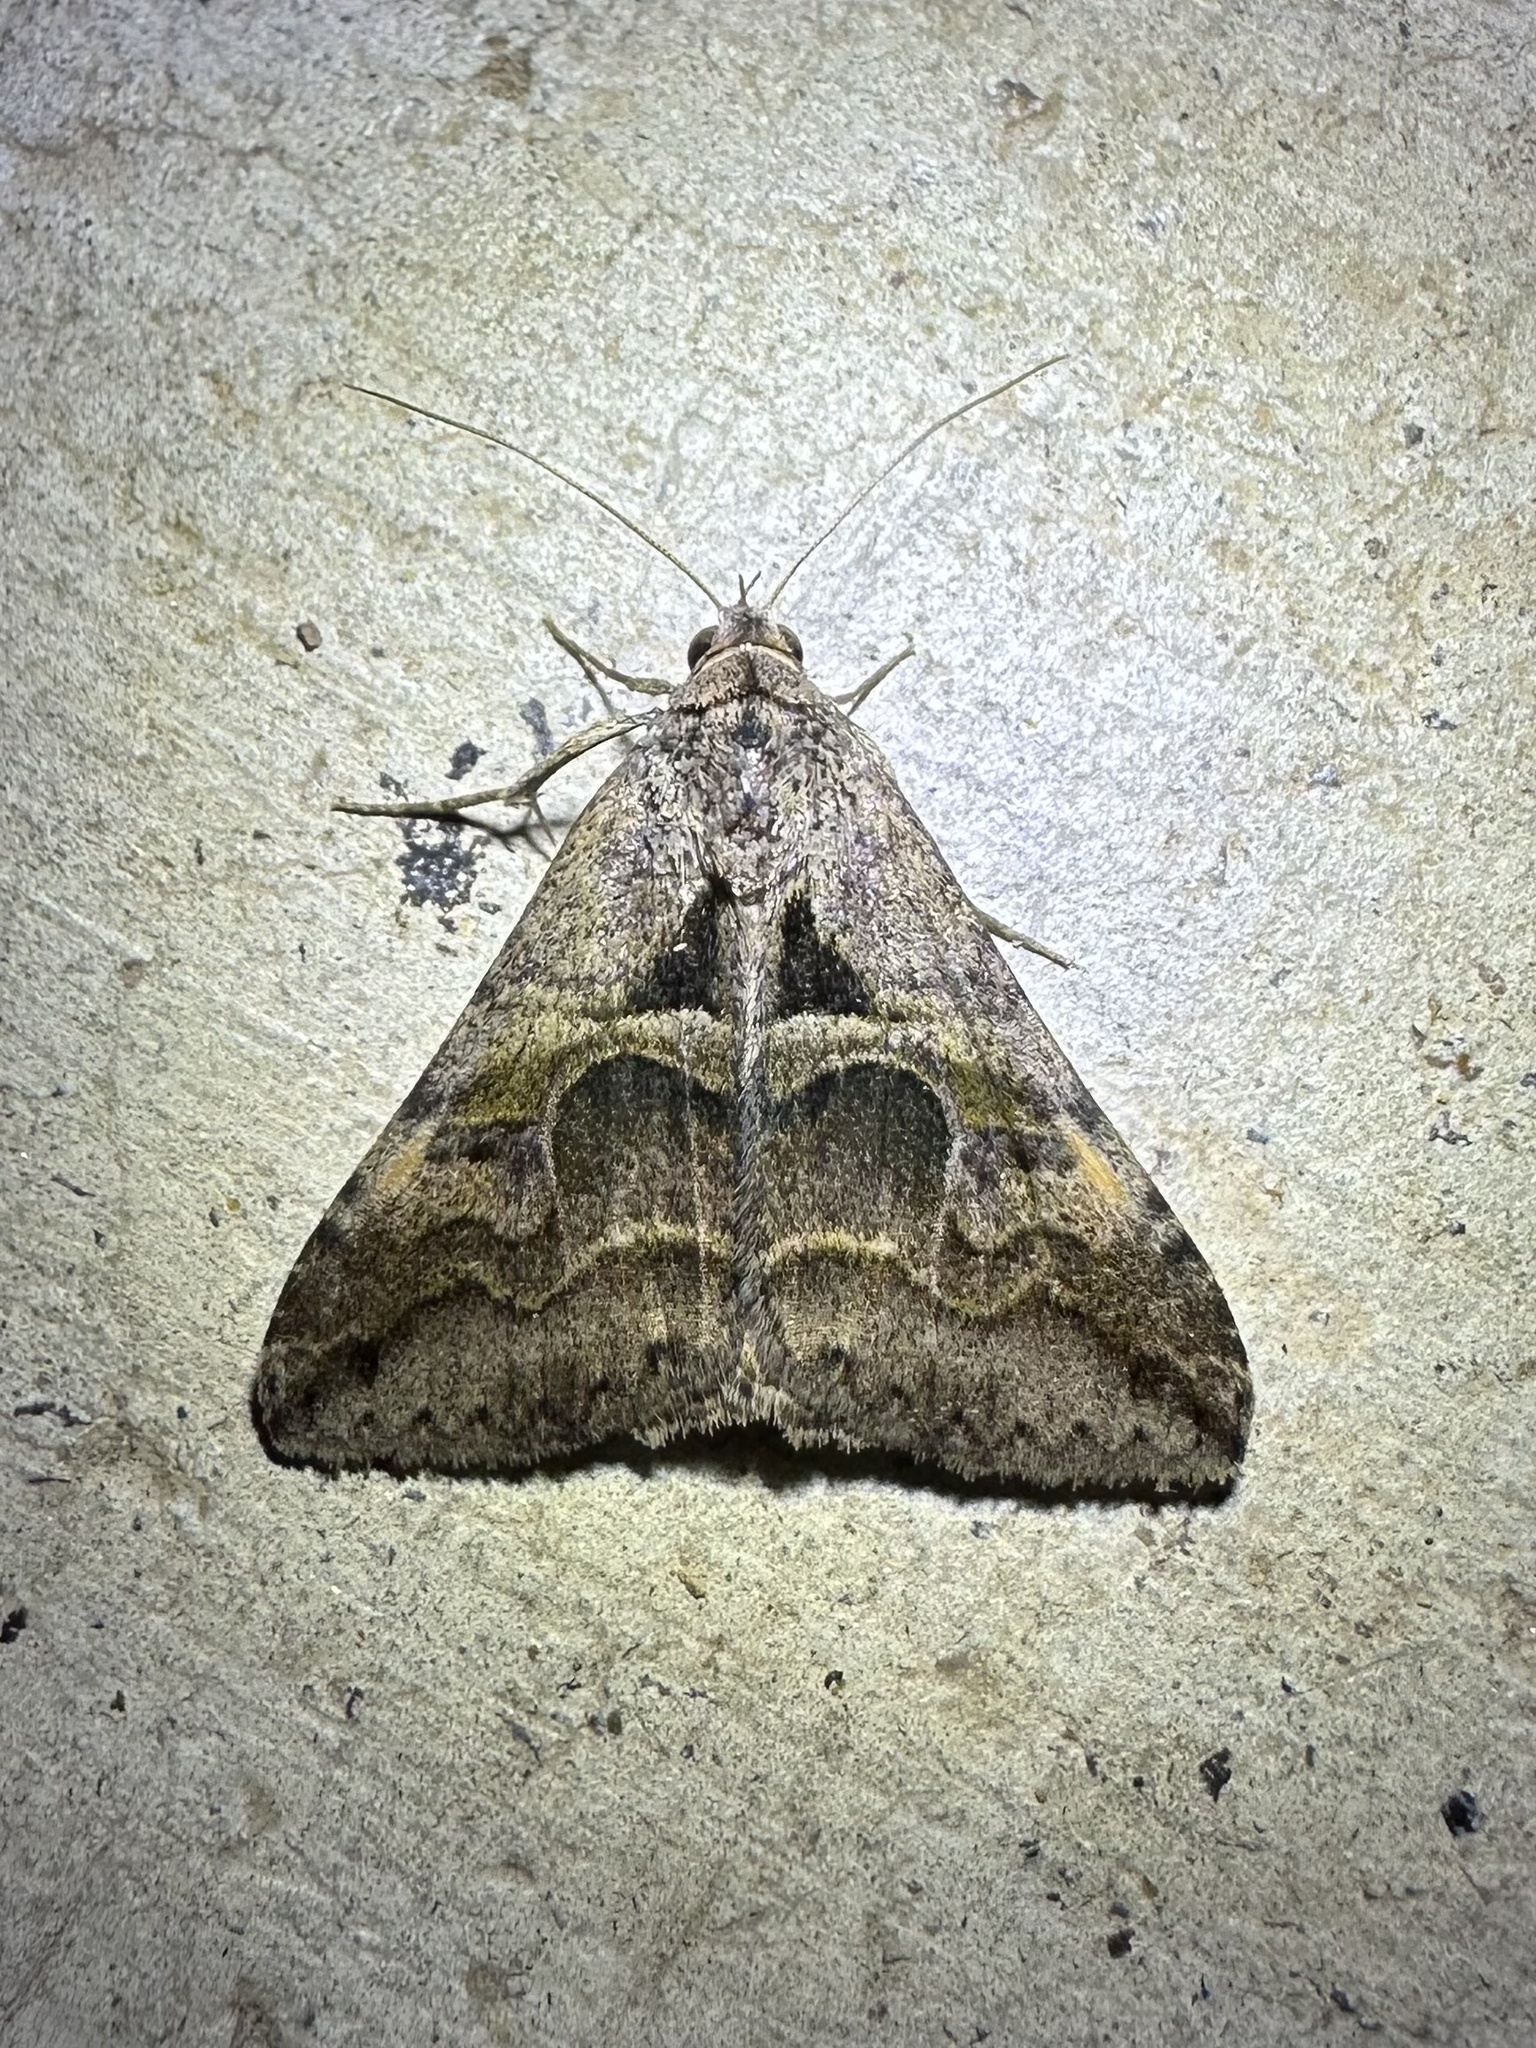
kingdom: Animalia
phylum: Arthropoda
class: Insecta
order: Lepidoptera
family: Erebidae
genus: Melipotis
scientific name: Melipotis cellaris
